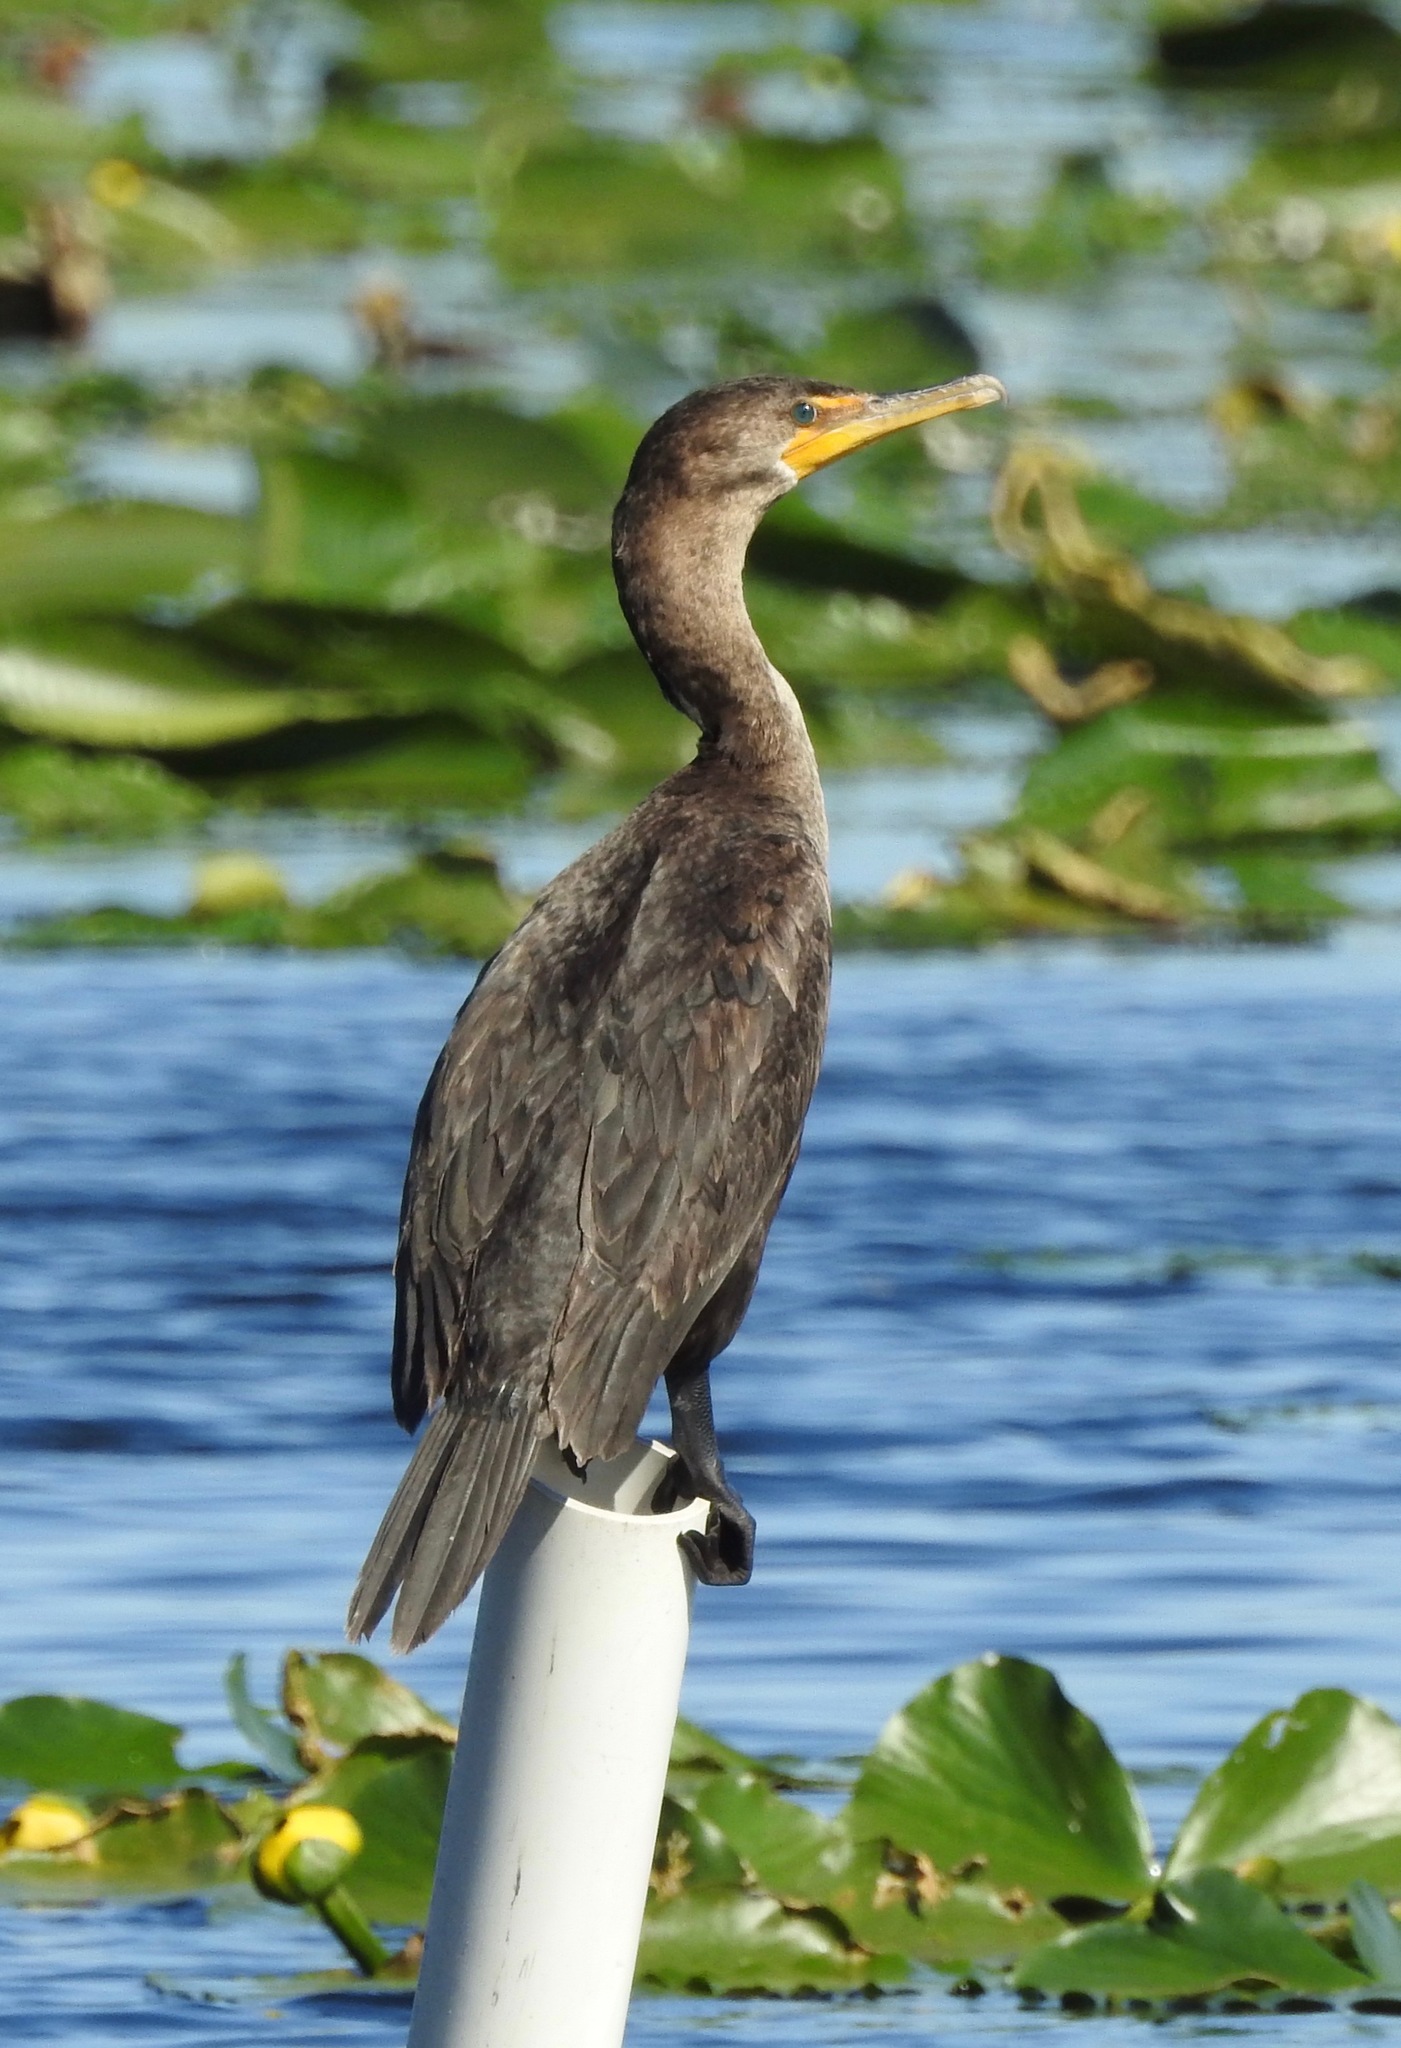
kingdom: Animalia
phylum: Chordata
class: Aves
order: Suliformes
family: Phalacrocoracidae
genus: Phalacrocorax
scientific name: Phalacrocorax auritus
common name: Double-crested cormorant
